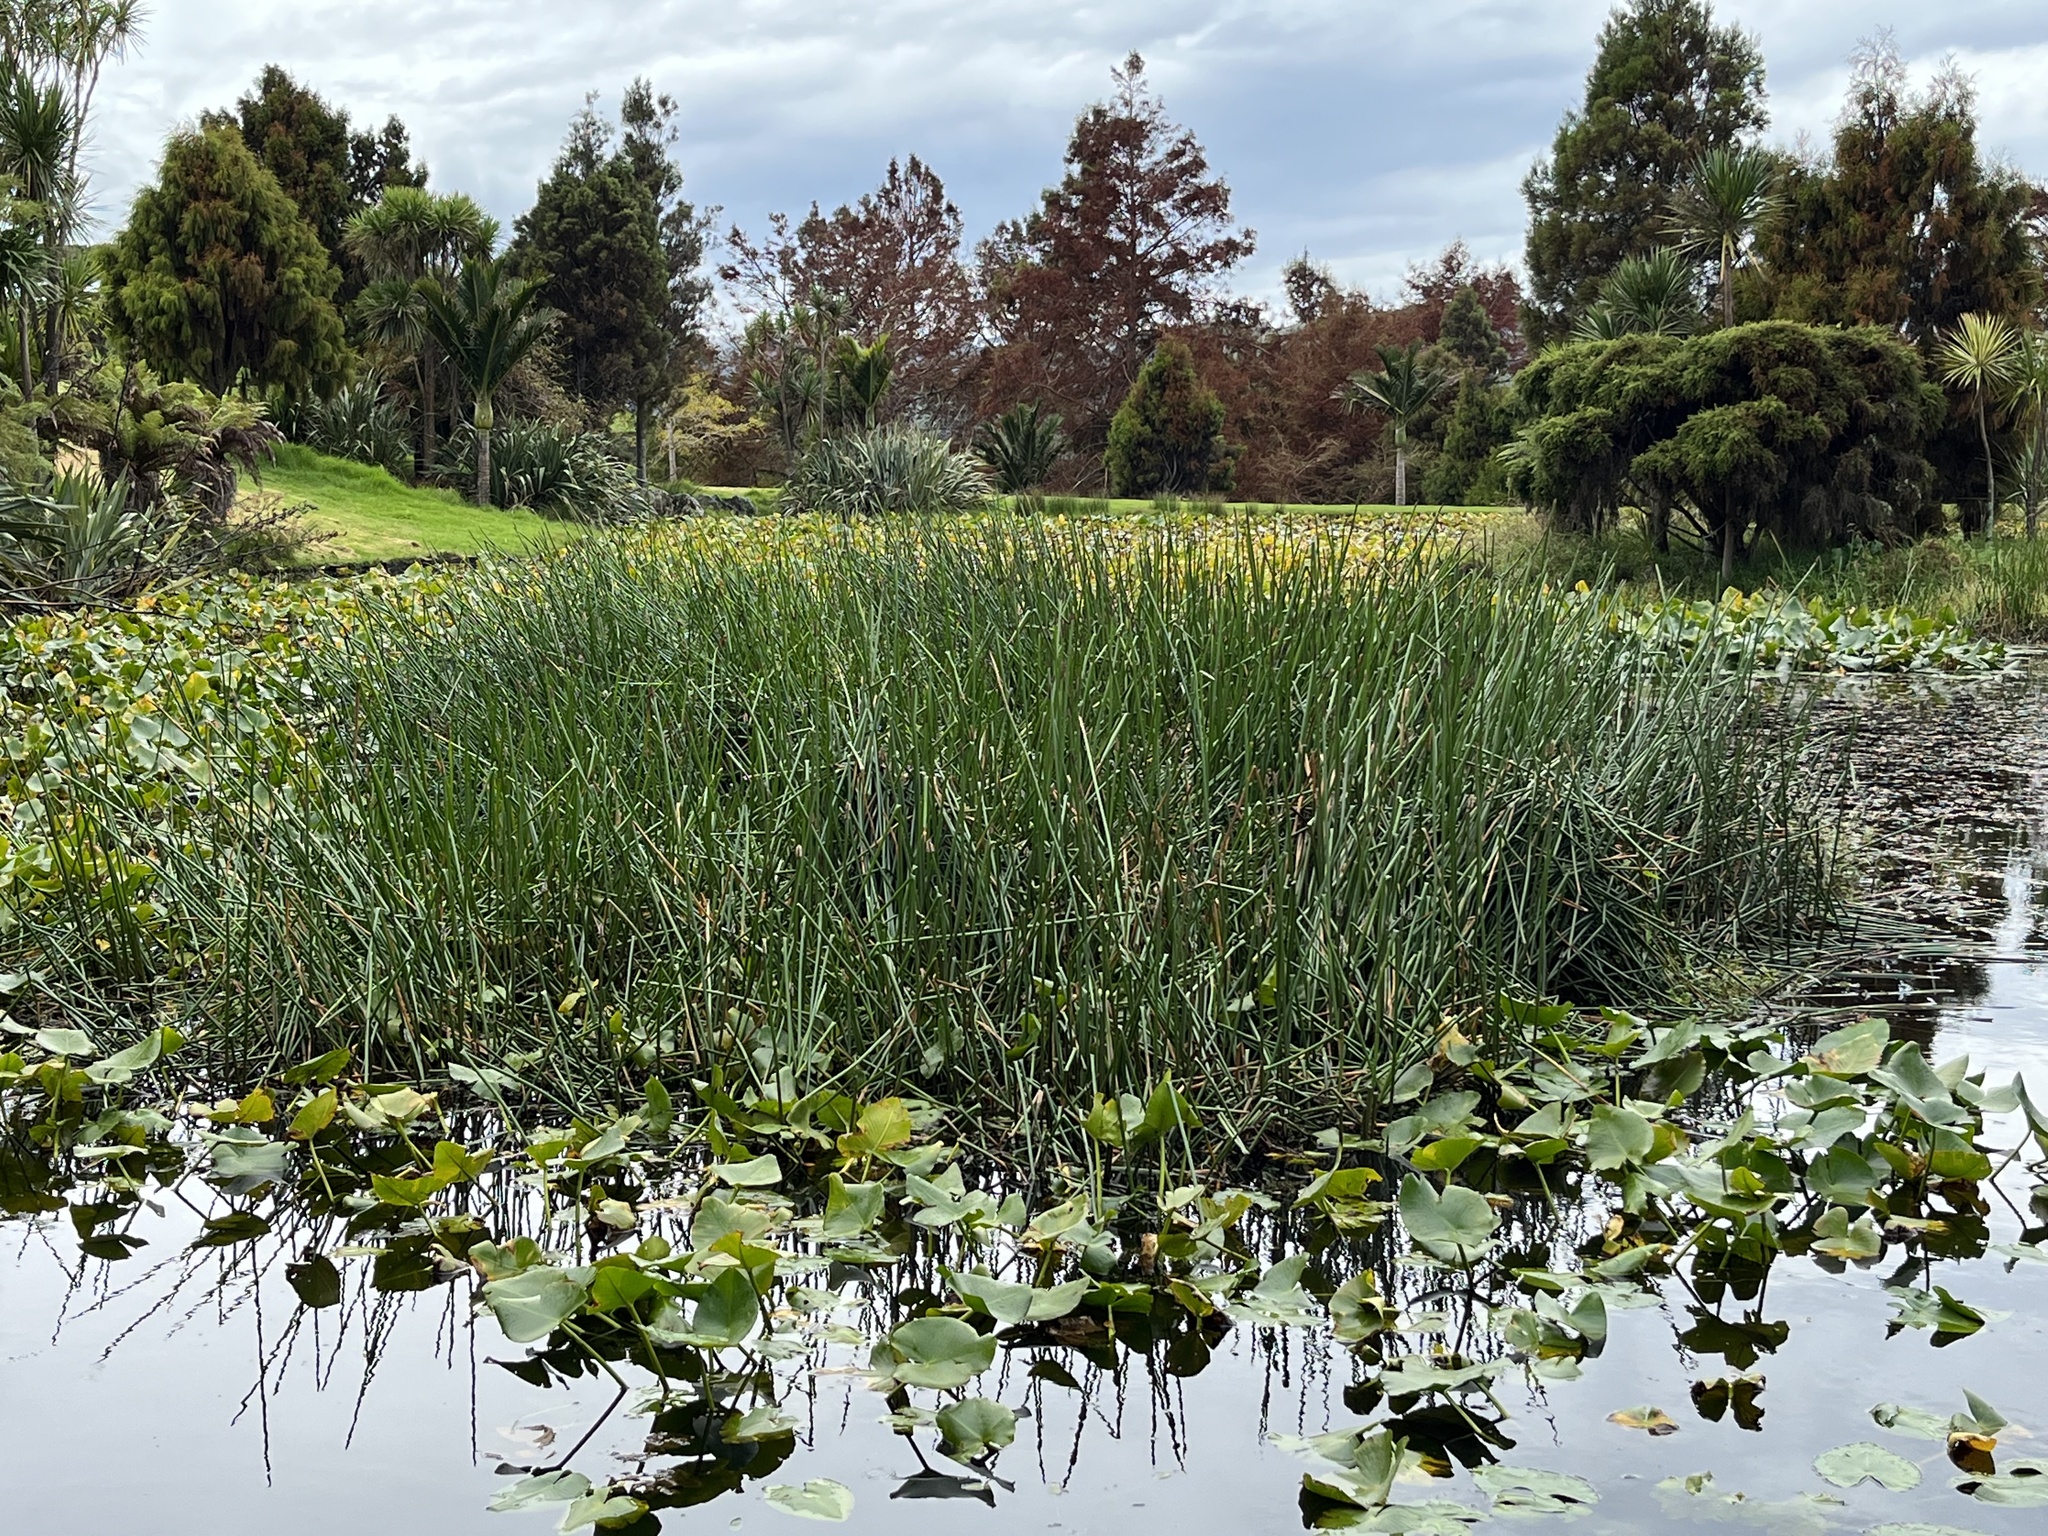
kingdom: Plantae
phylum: Tracheophyta
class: Liliopsida
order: Poales
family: Cyperaceae
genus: Eleocharis
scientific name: Eleocharis sphacelata
